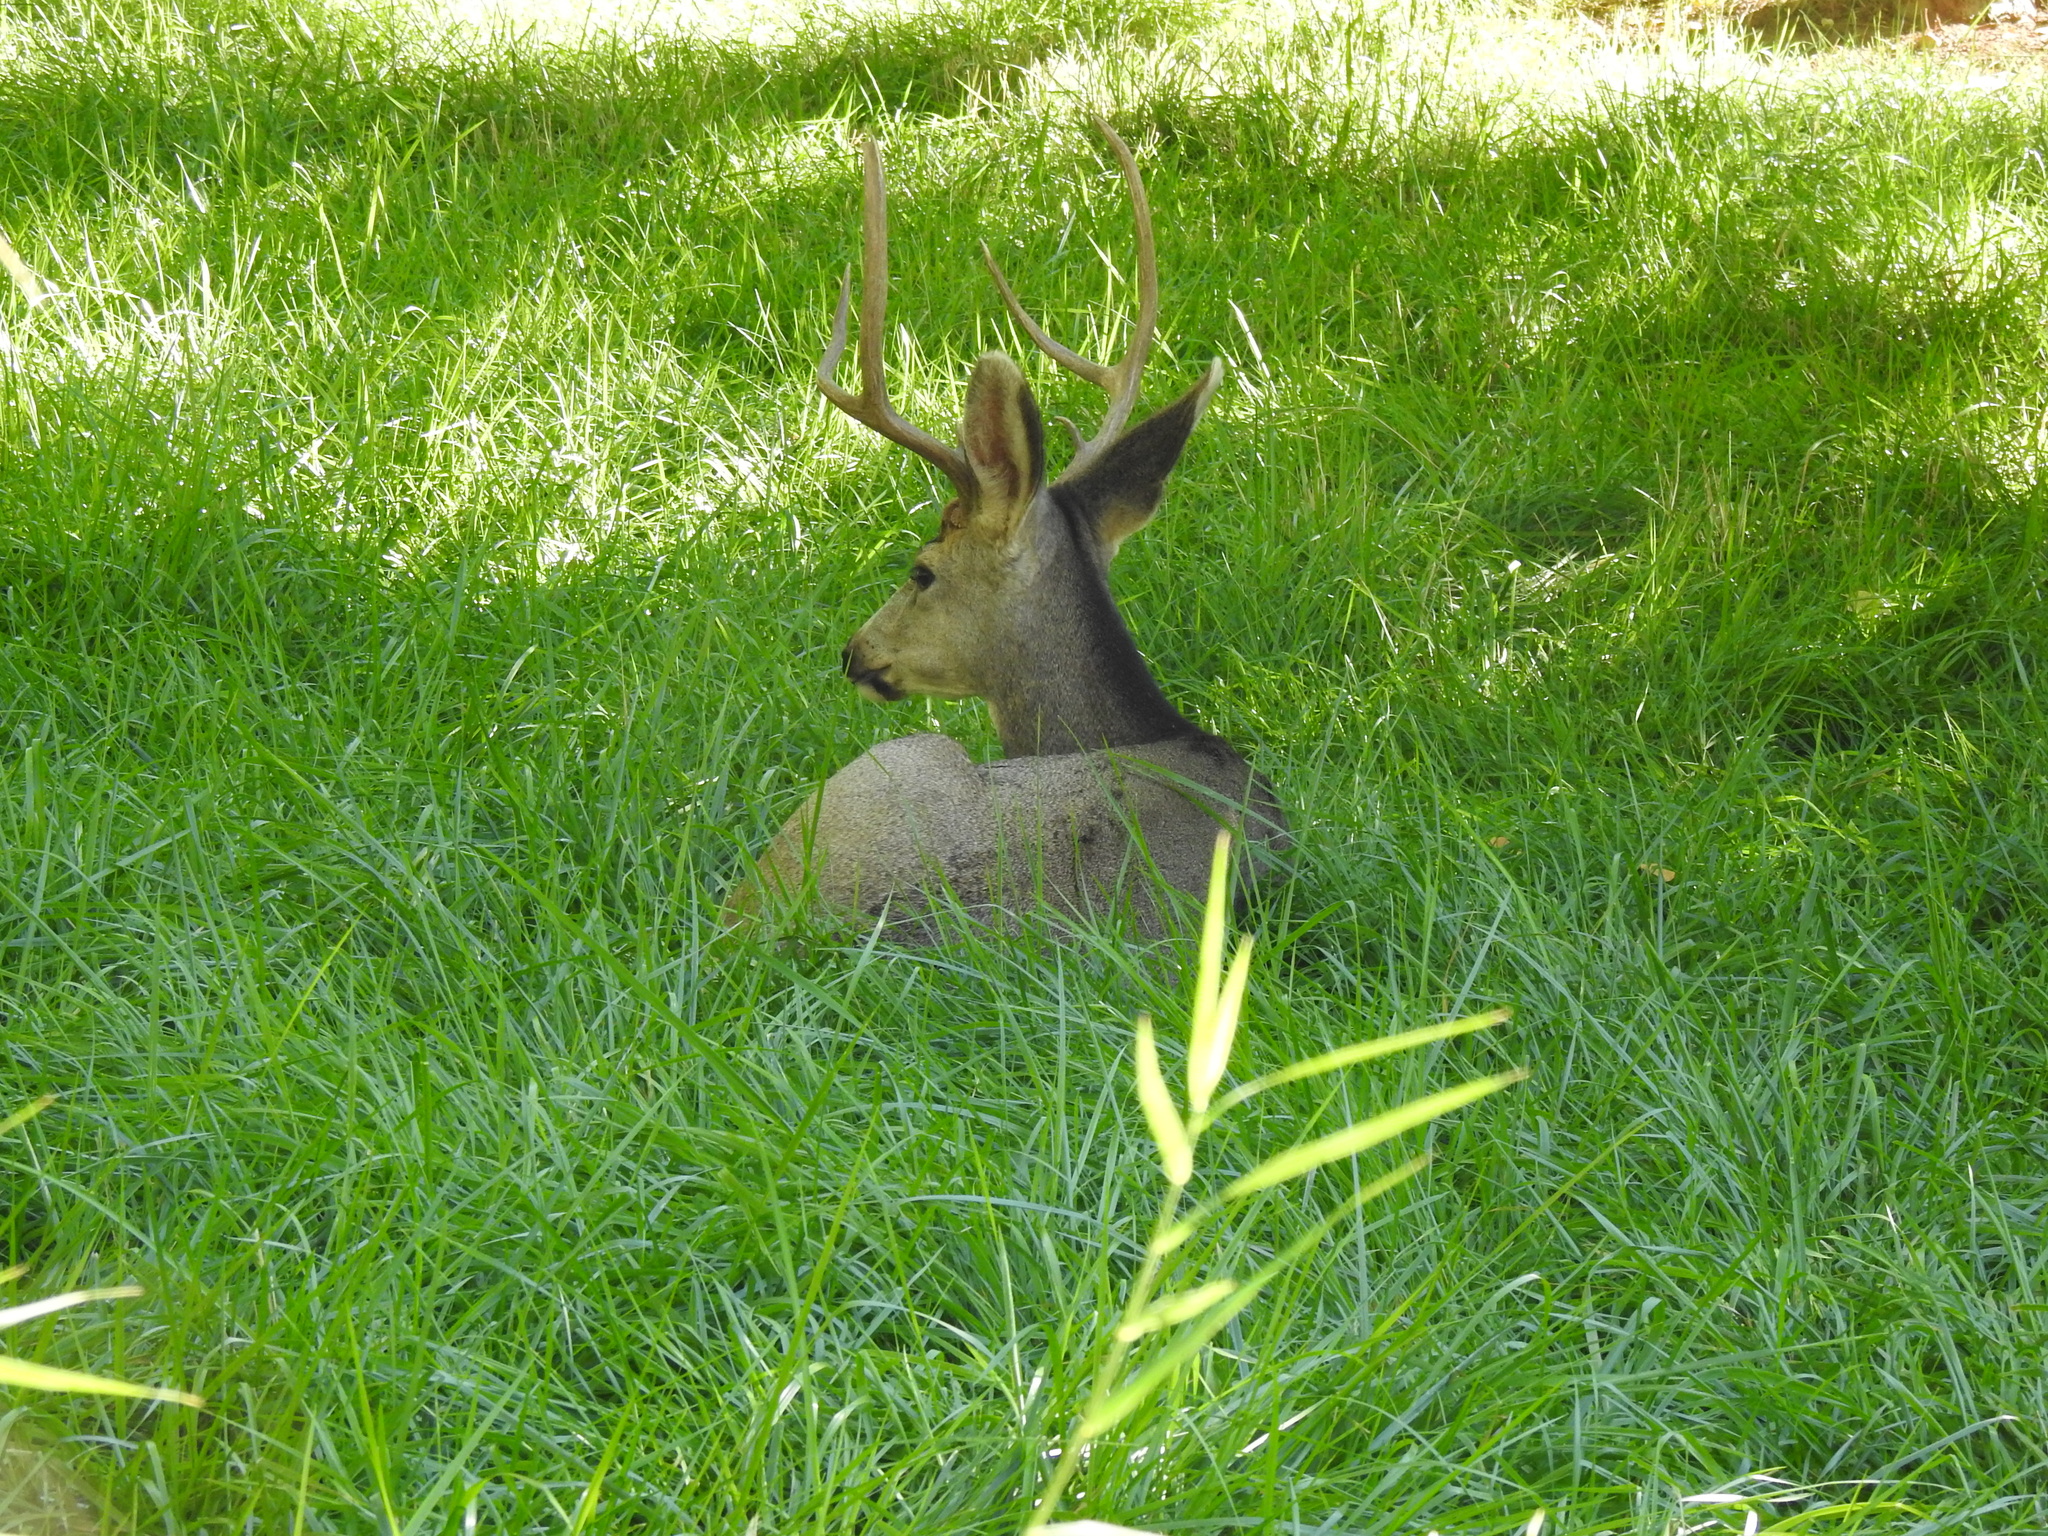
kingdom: Animalia
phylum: Chordata
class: Mammalia
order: Artiodactyla
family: Cervidae
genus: Odocoileus
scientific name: Odocoileus hemionus
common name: Mule deer
